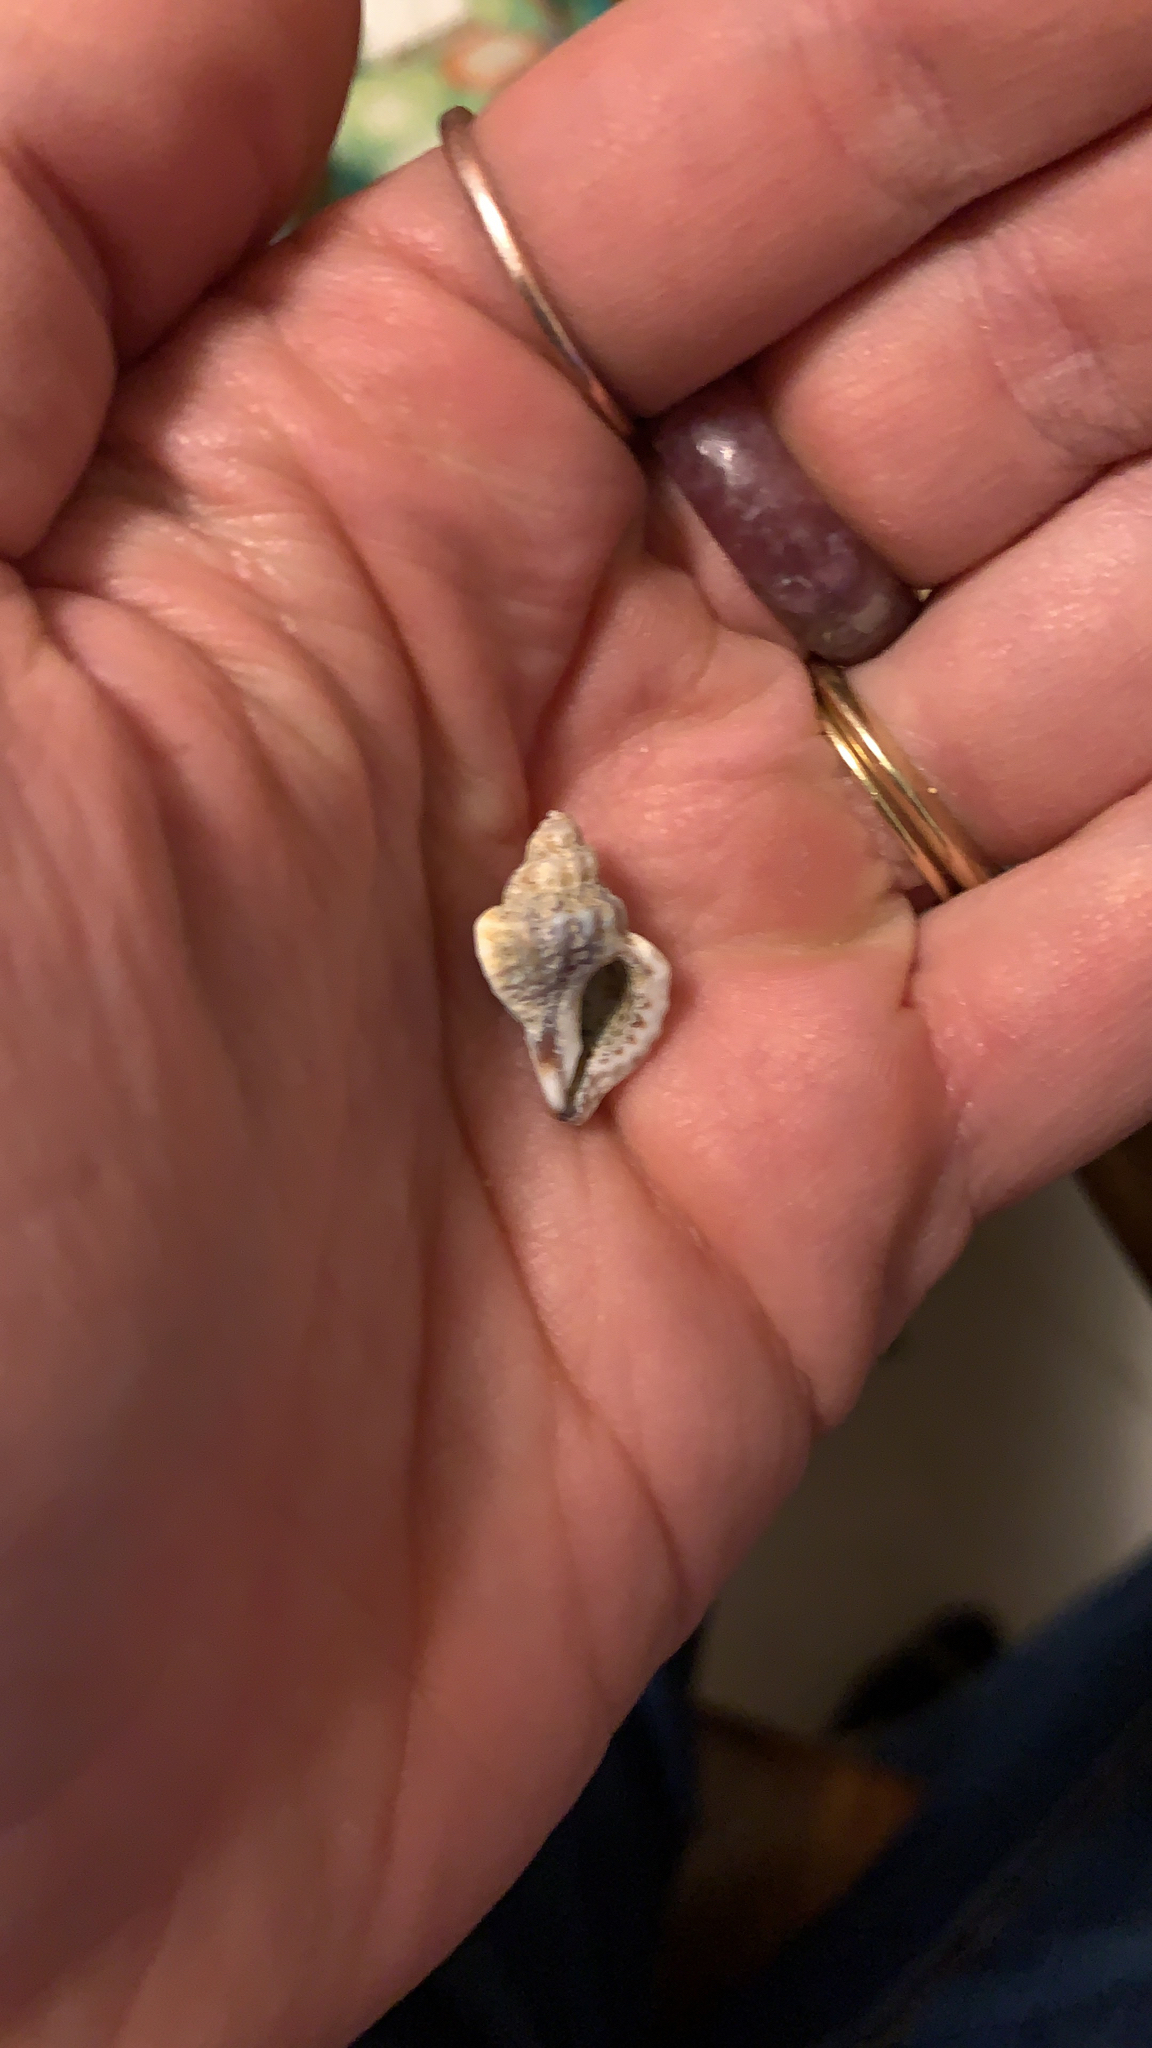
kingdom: Animalia
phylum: Mollusca
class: Gastropoda
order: Neogastropoda
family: Muricidae
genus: Eupleura
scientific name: Eupleura caudata
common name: Thick-lip drill
